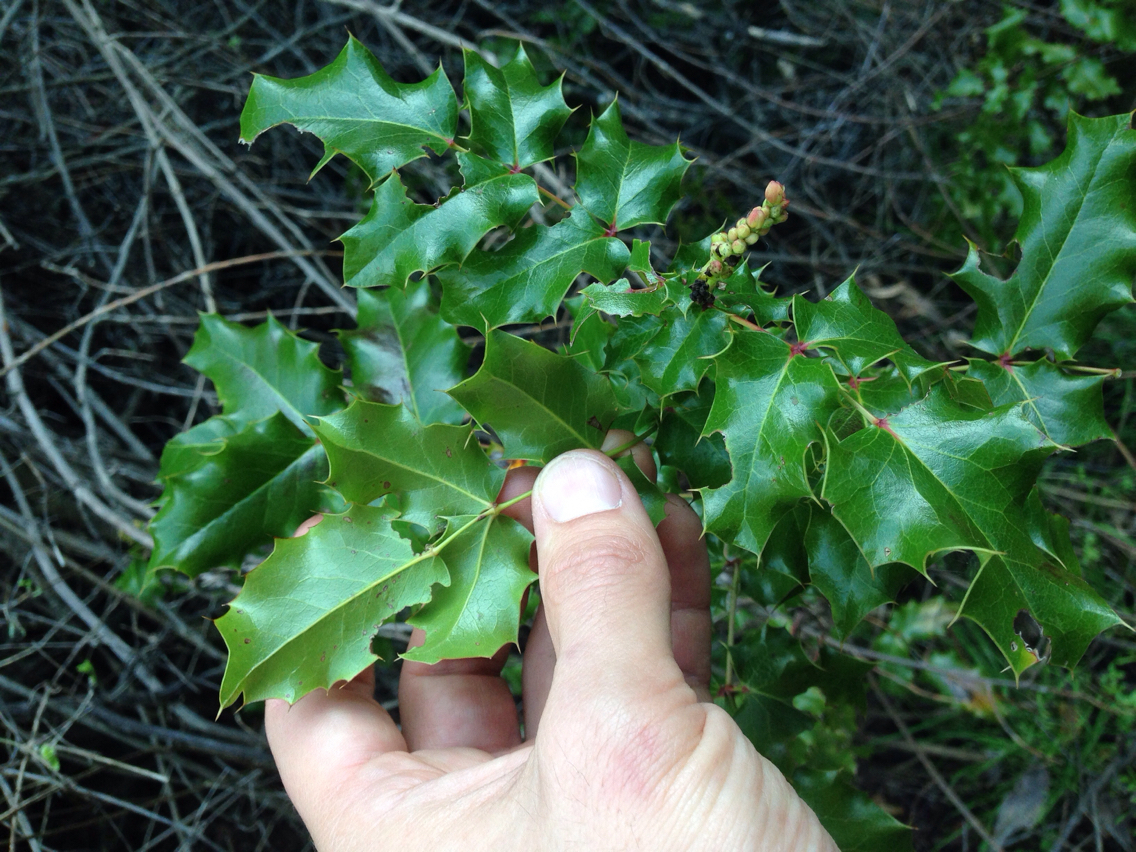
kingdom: Plantae
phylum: Tracheophyta
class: Magnoliopsida
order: Ranunculales
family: Berberidaceae
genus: Mahonia
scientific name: Mahonia
